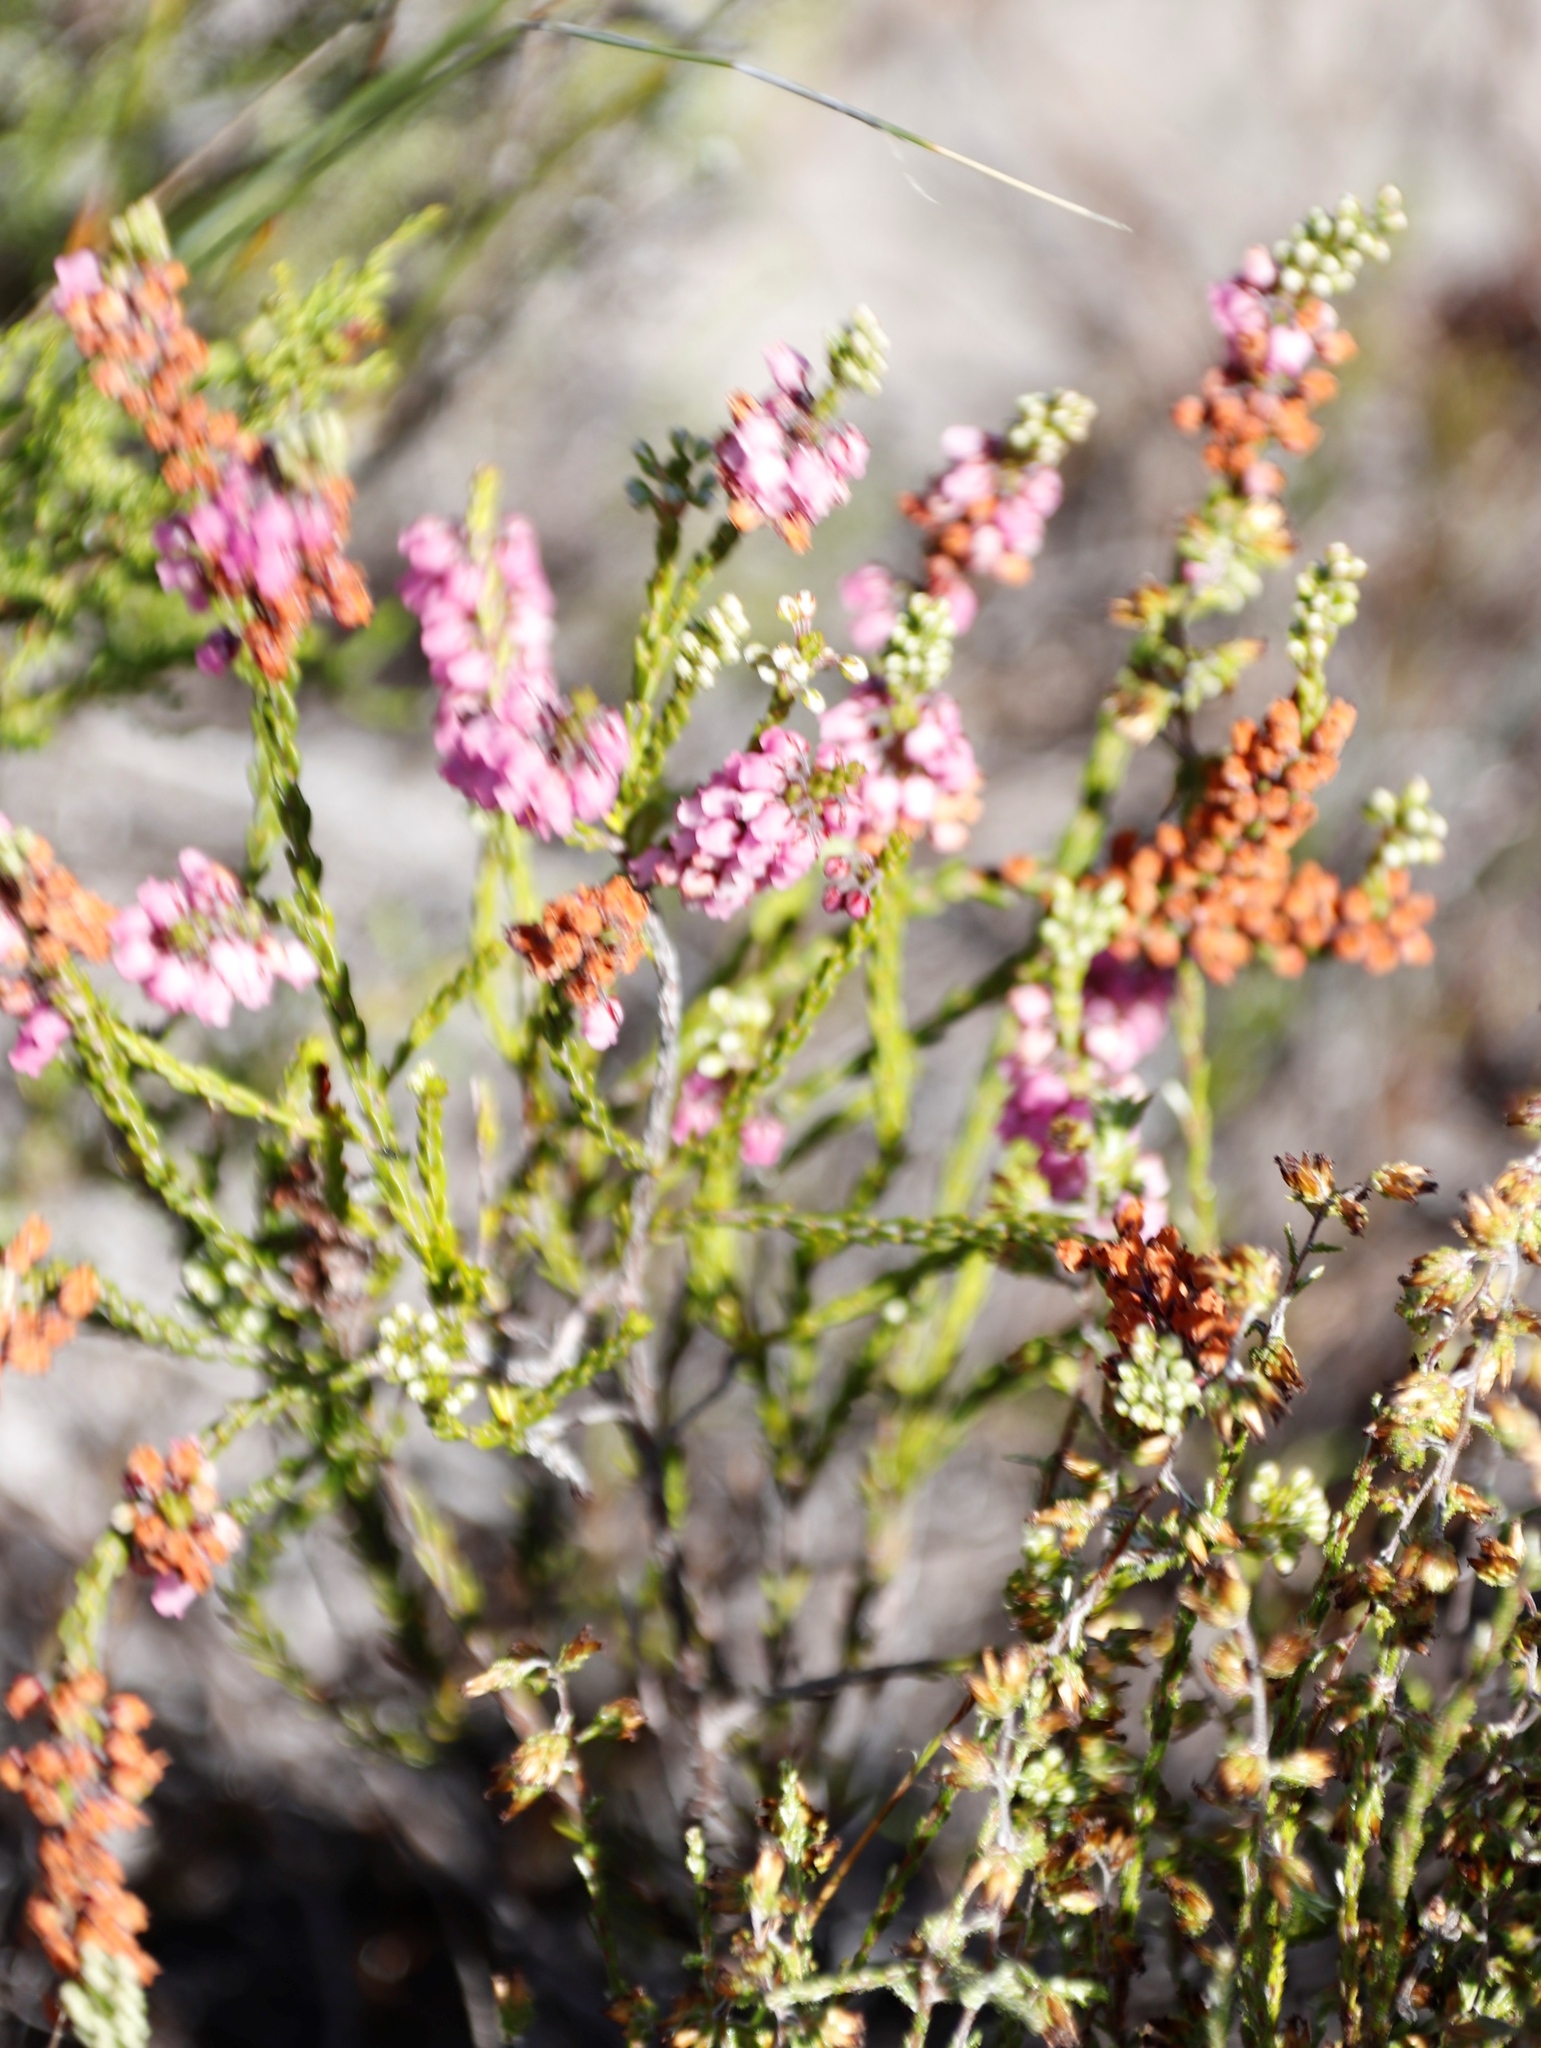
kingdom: Plantae
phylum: Tracheophyta
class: Magnoliopsida
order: Ericales
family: Ericaceae
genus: Erica
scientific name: Erica pulchella
